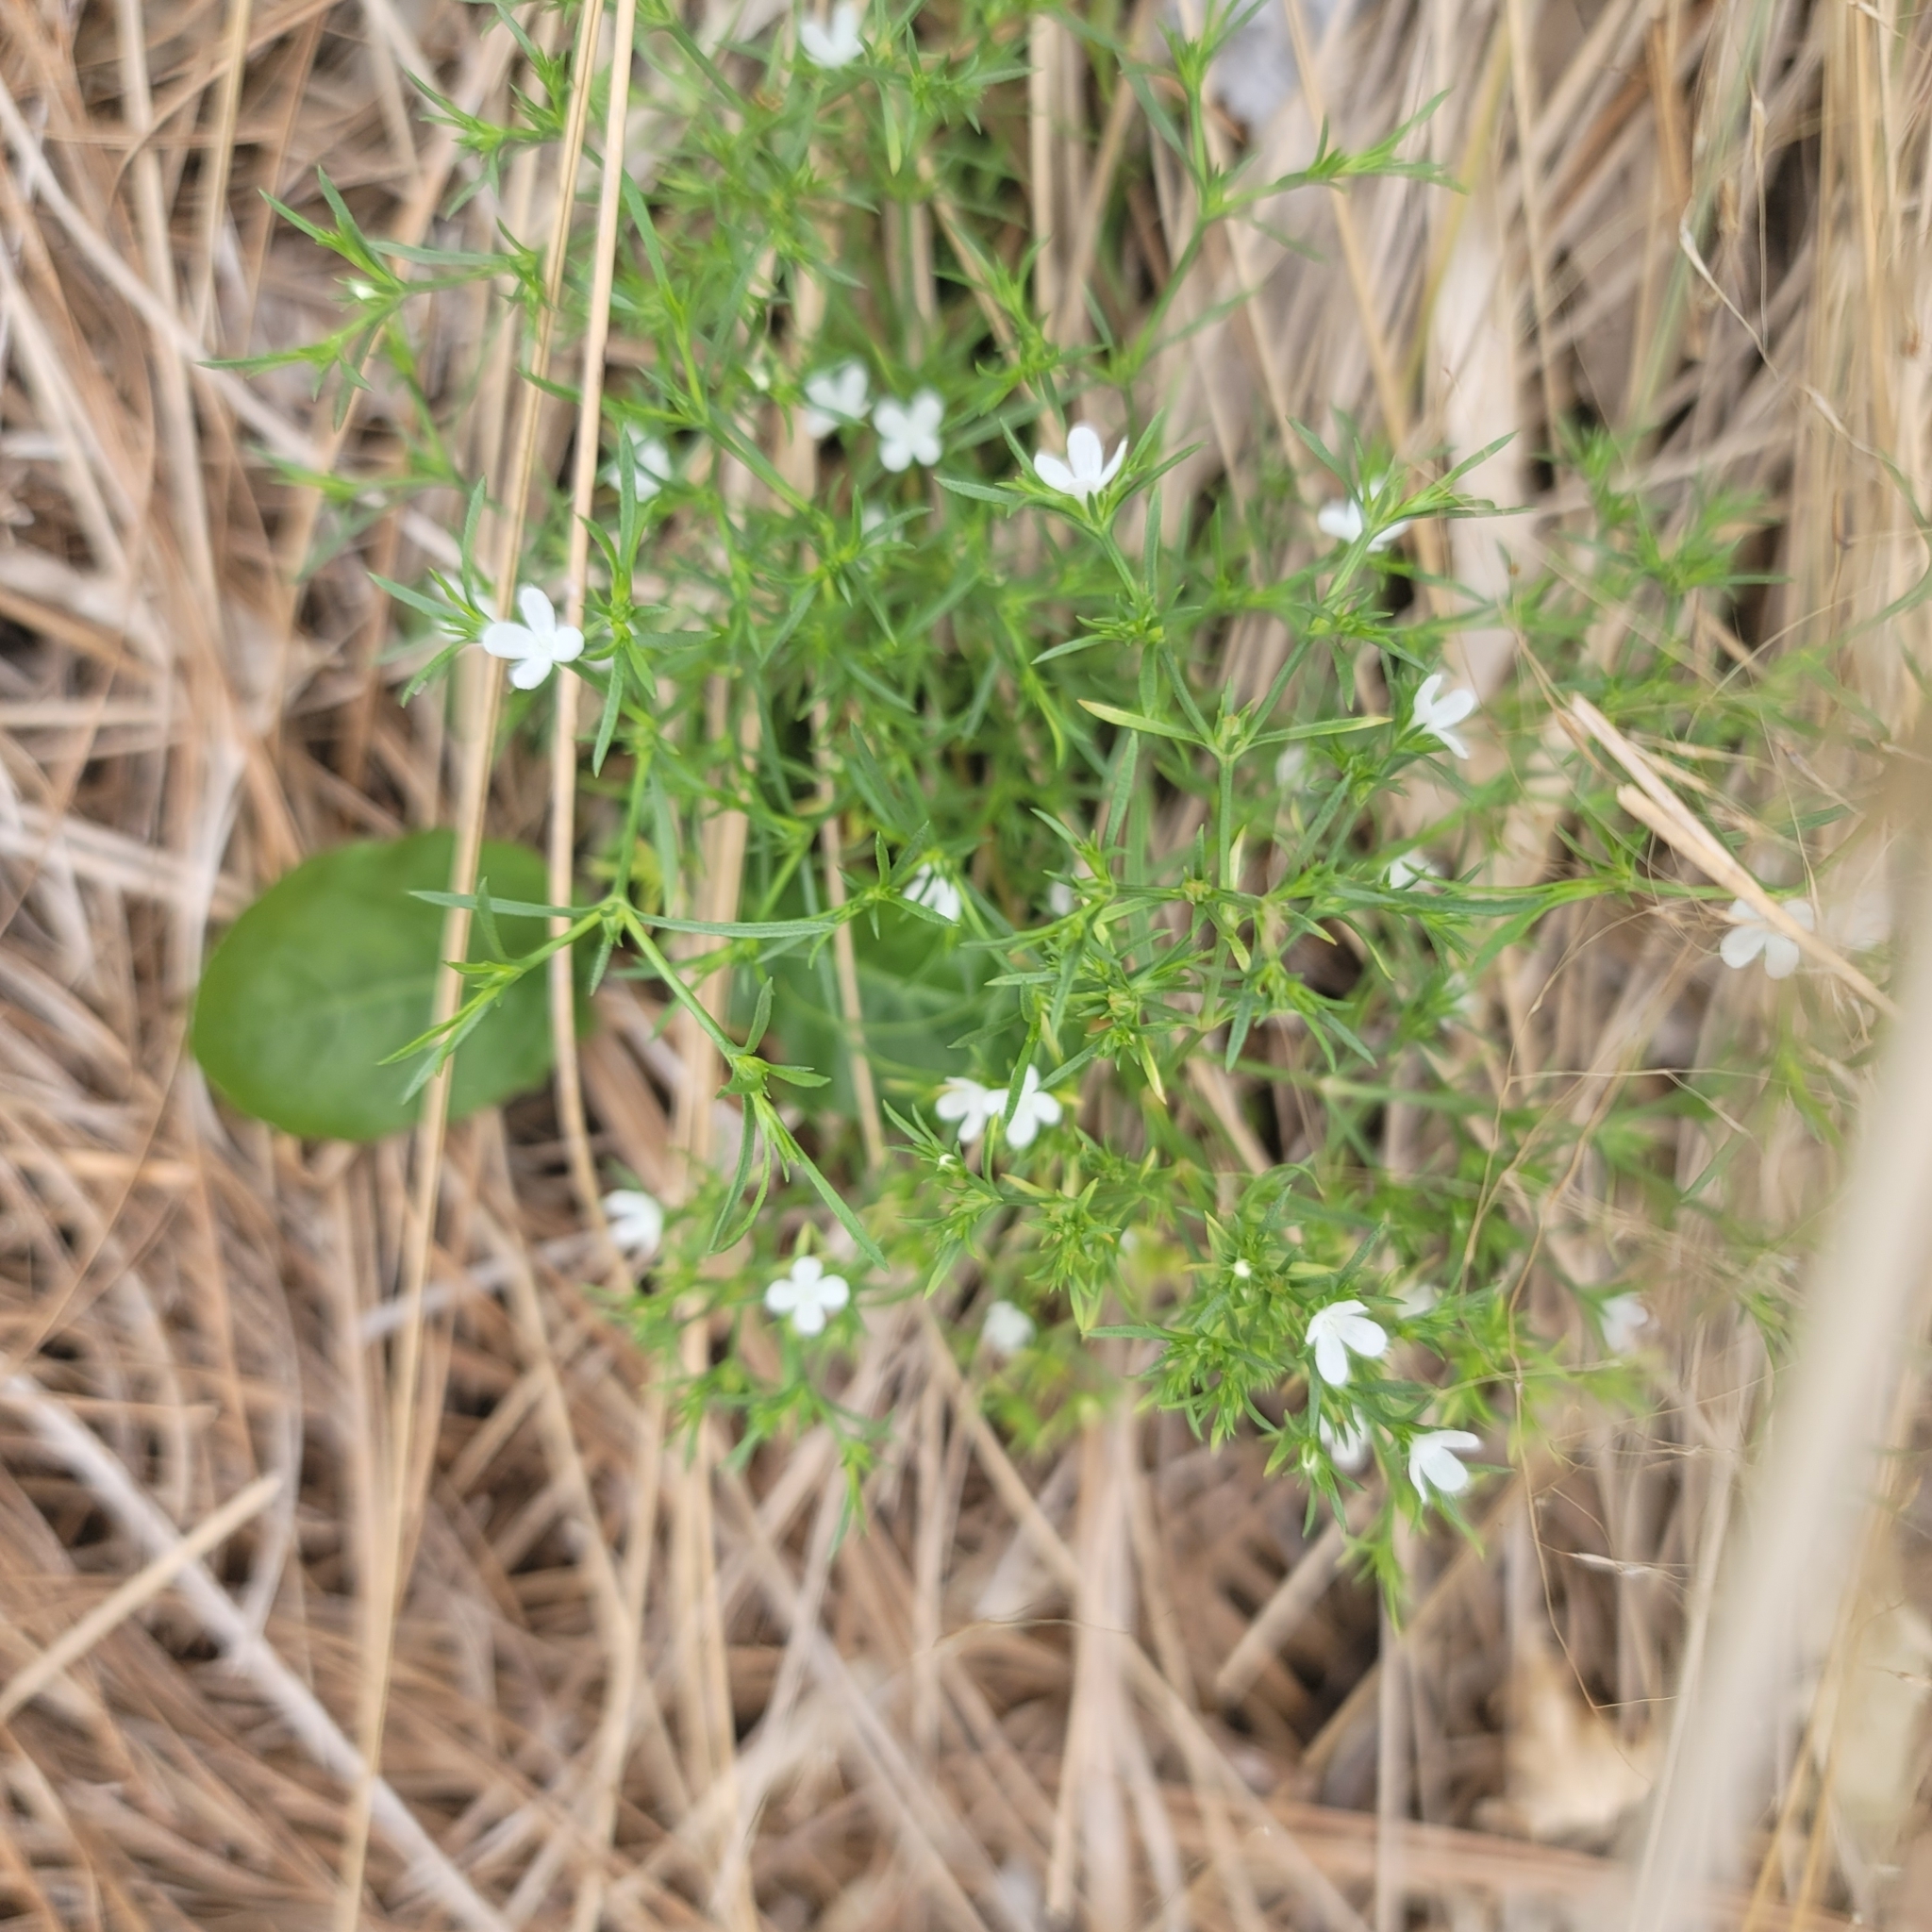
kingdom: Plantae
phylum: Tracheophyta
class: Magnoliopsida
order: Lamiales
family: Tetrachondraceae
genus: Polypremum
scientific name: Polypremum procumbens
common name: Juniper-leaf
